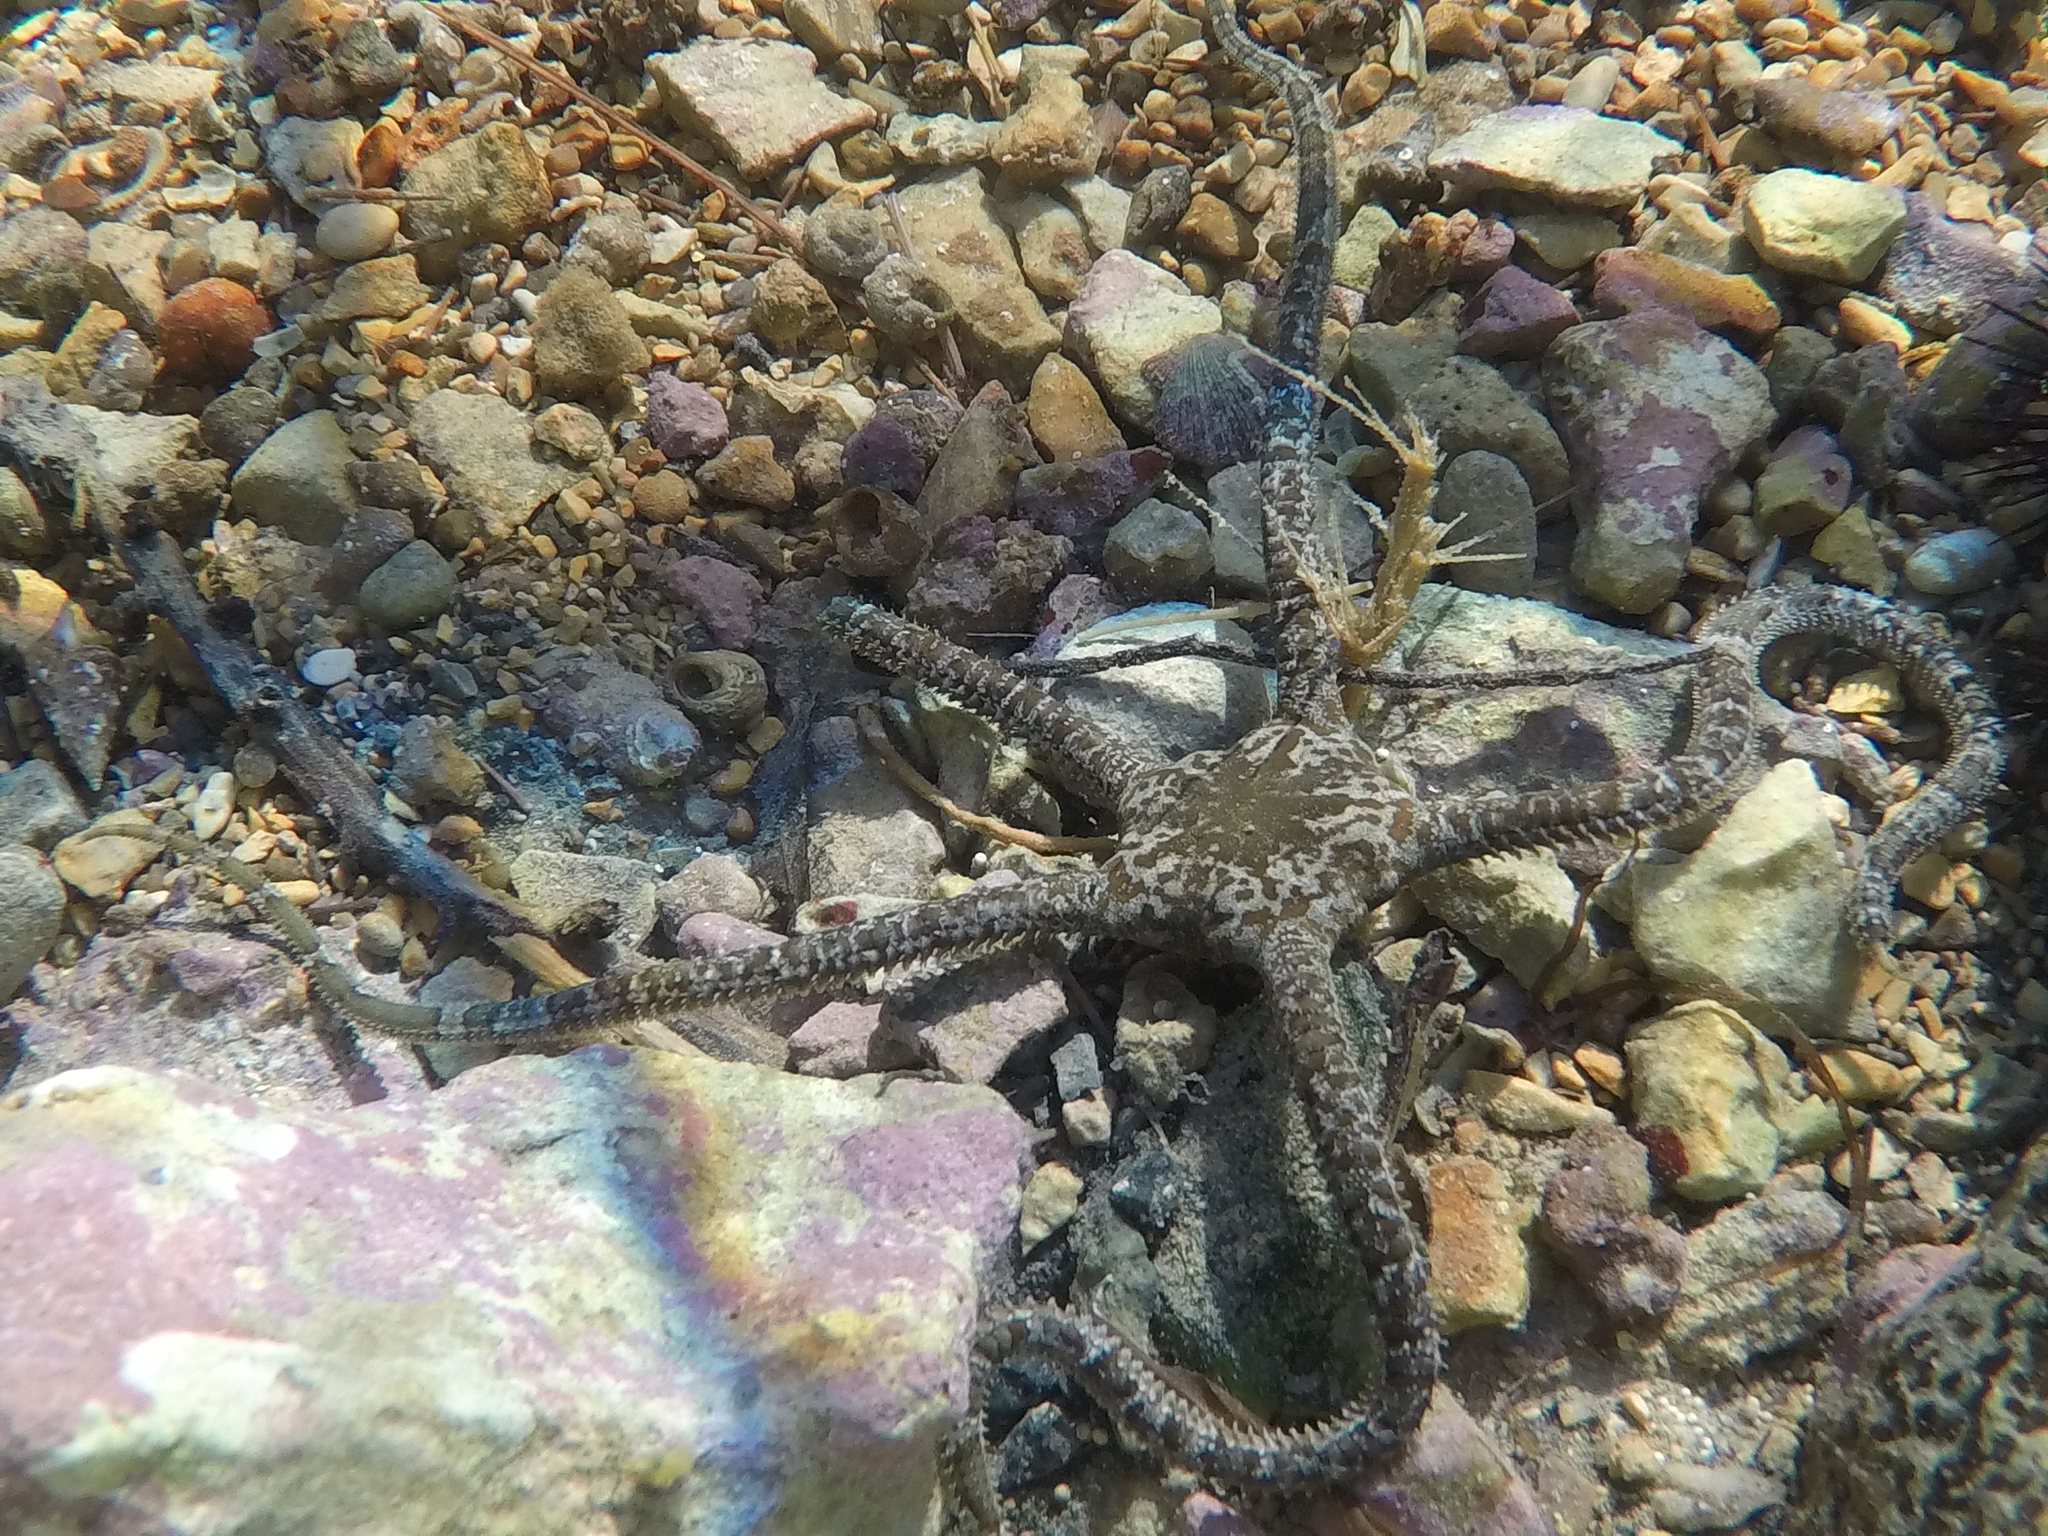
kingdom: Animalia
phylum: Echinodermata
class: Ophiuroidea
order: Ophiacanthida
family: Ophiodermatidae
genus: Ophioderma
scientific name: Ophioderma longicaudum
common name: Smooth brittle-star
